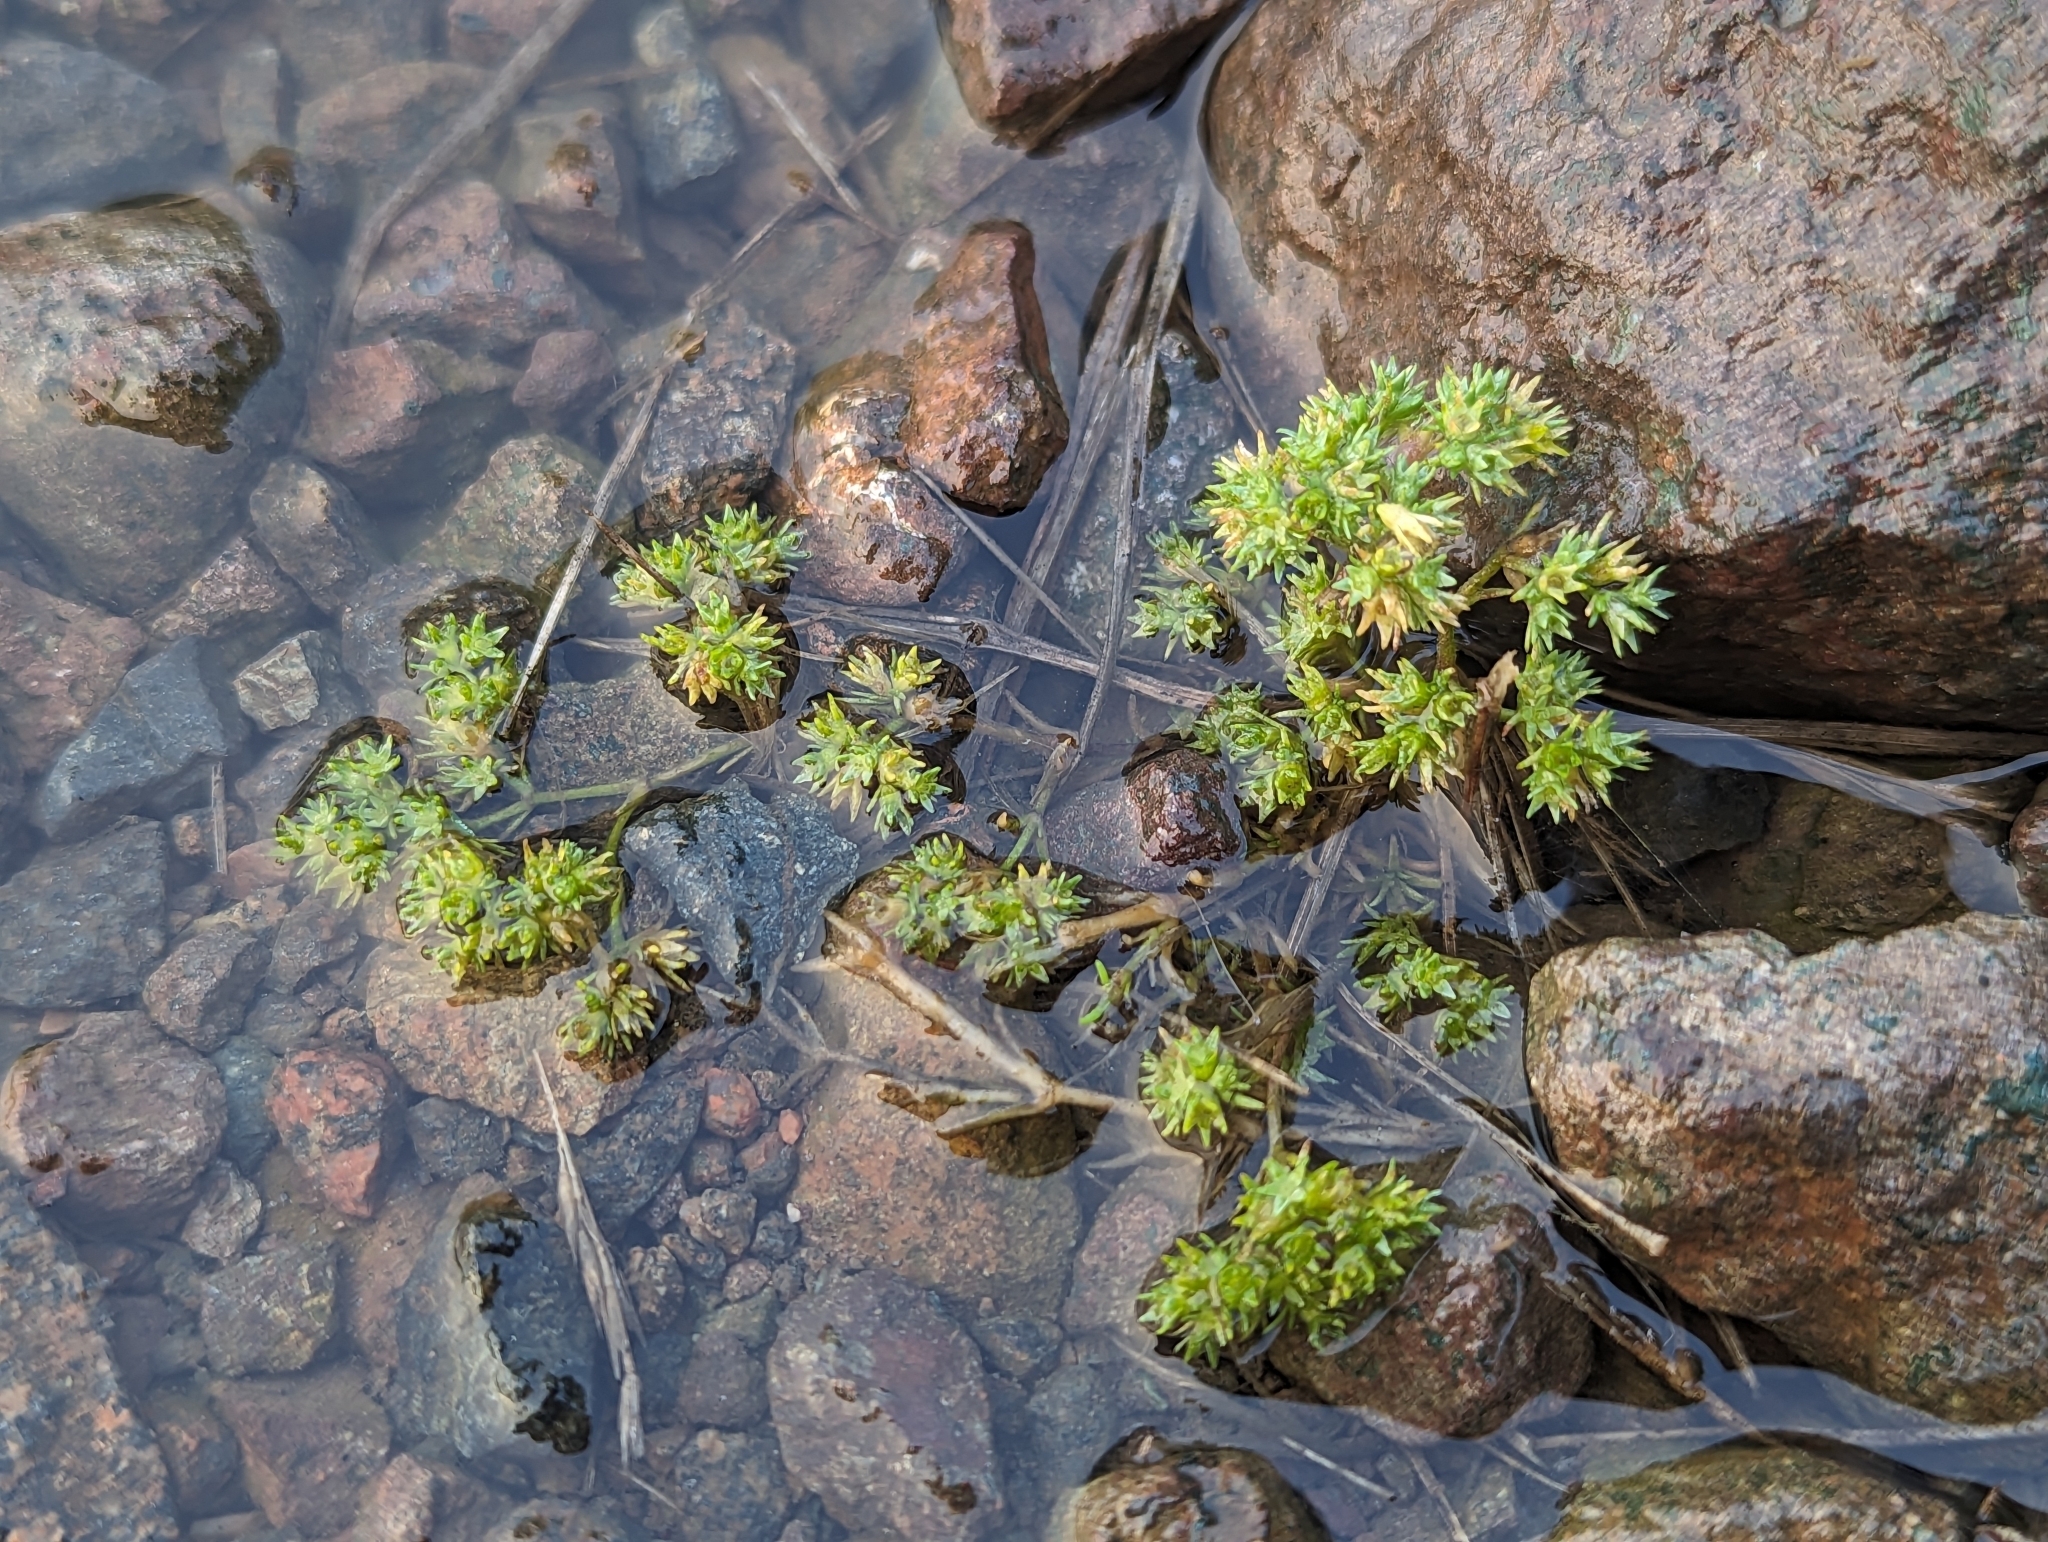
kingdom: Plantae
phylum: Tracheophyta
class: Magnoliopsida
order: Caryophyllales
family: Caryophyllaceae
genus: Scleranthus
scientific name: Scleranthus annuus
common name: Annual knawel
